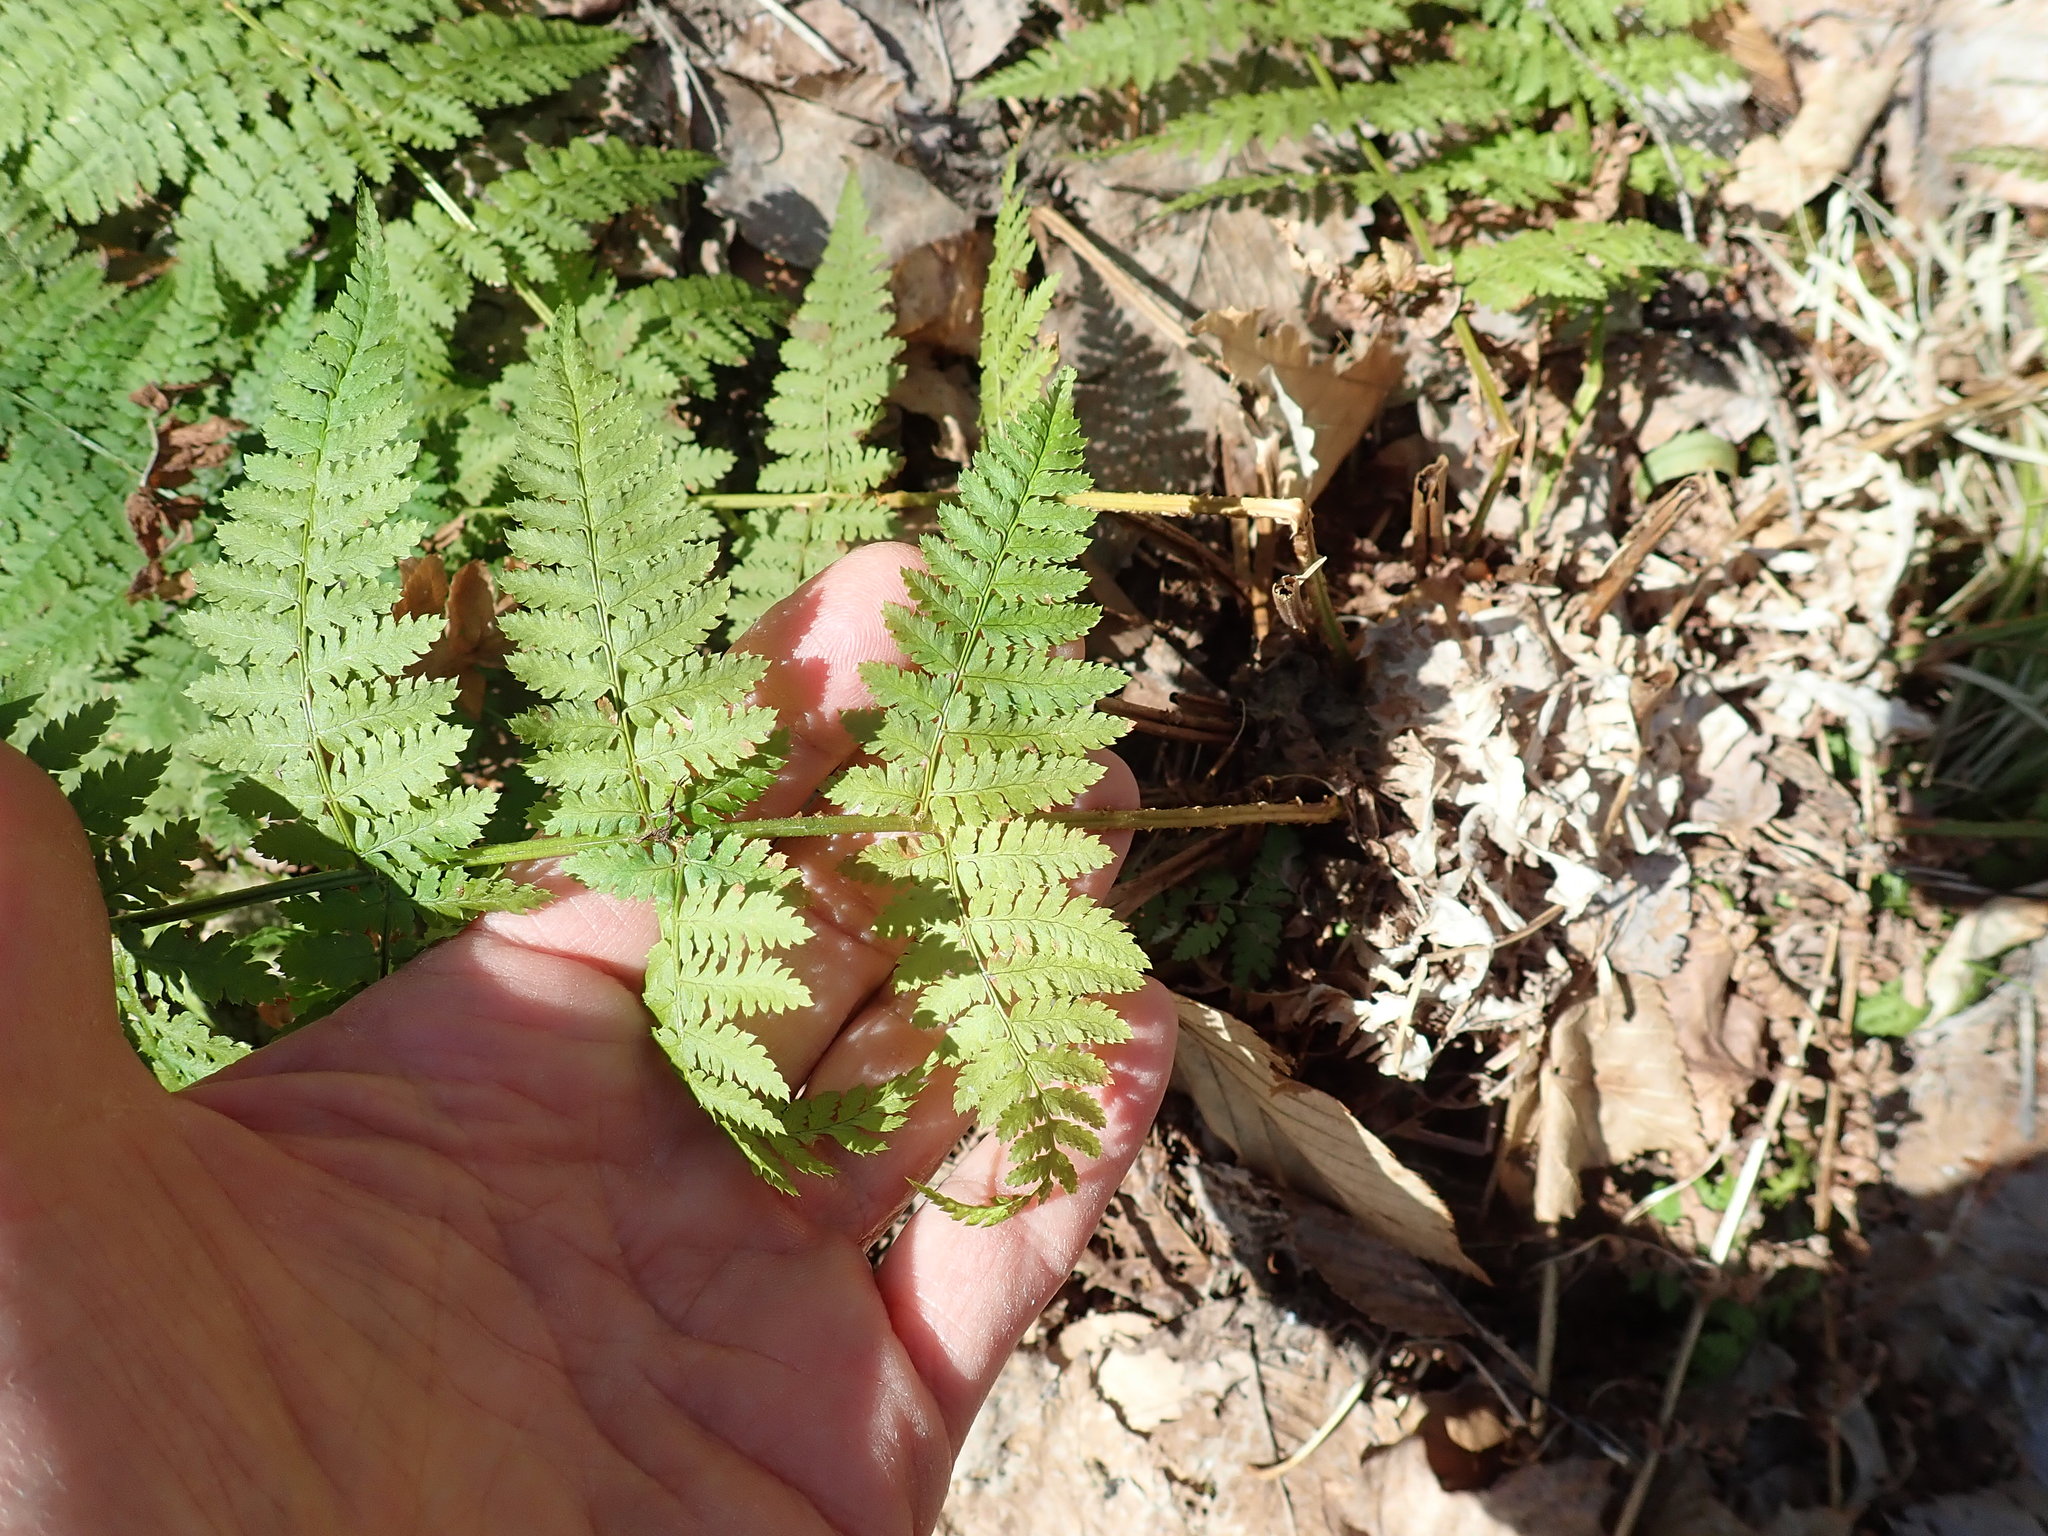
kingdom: Plantae
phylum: Tracheophyta
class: Polypodiopsida
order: Polypodiales
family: Dryopteridaceae
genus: Dryopteris
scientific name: Dryopteris intermedia
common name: Evergreen wood fern
